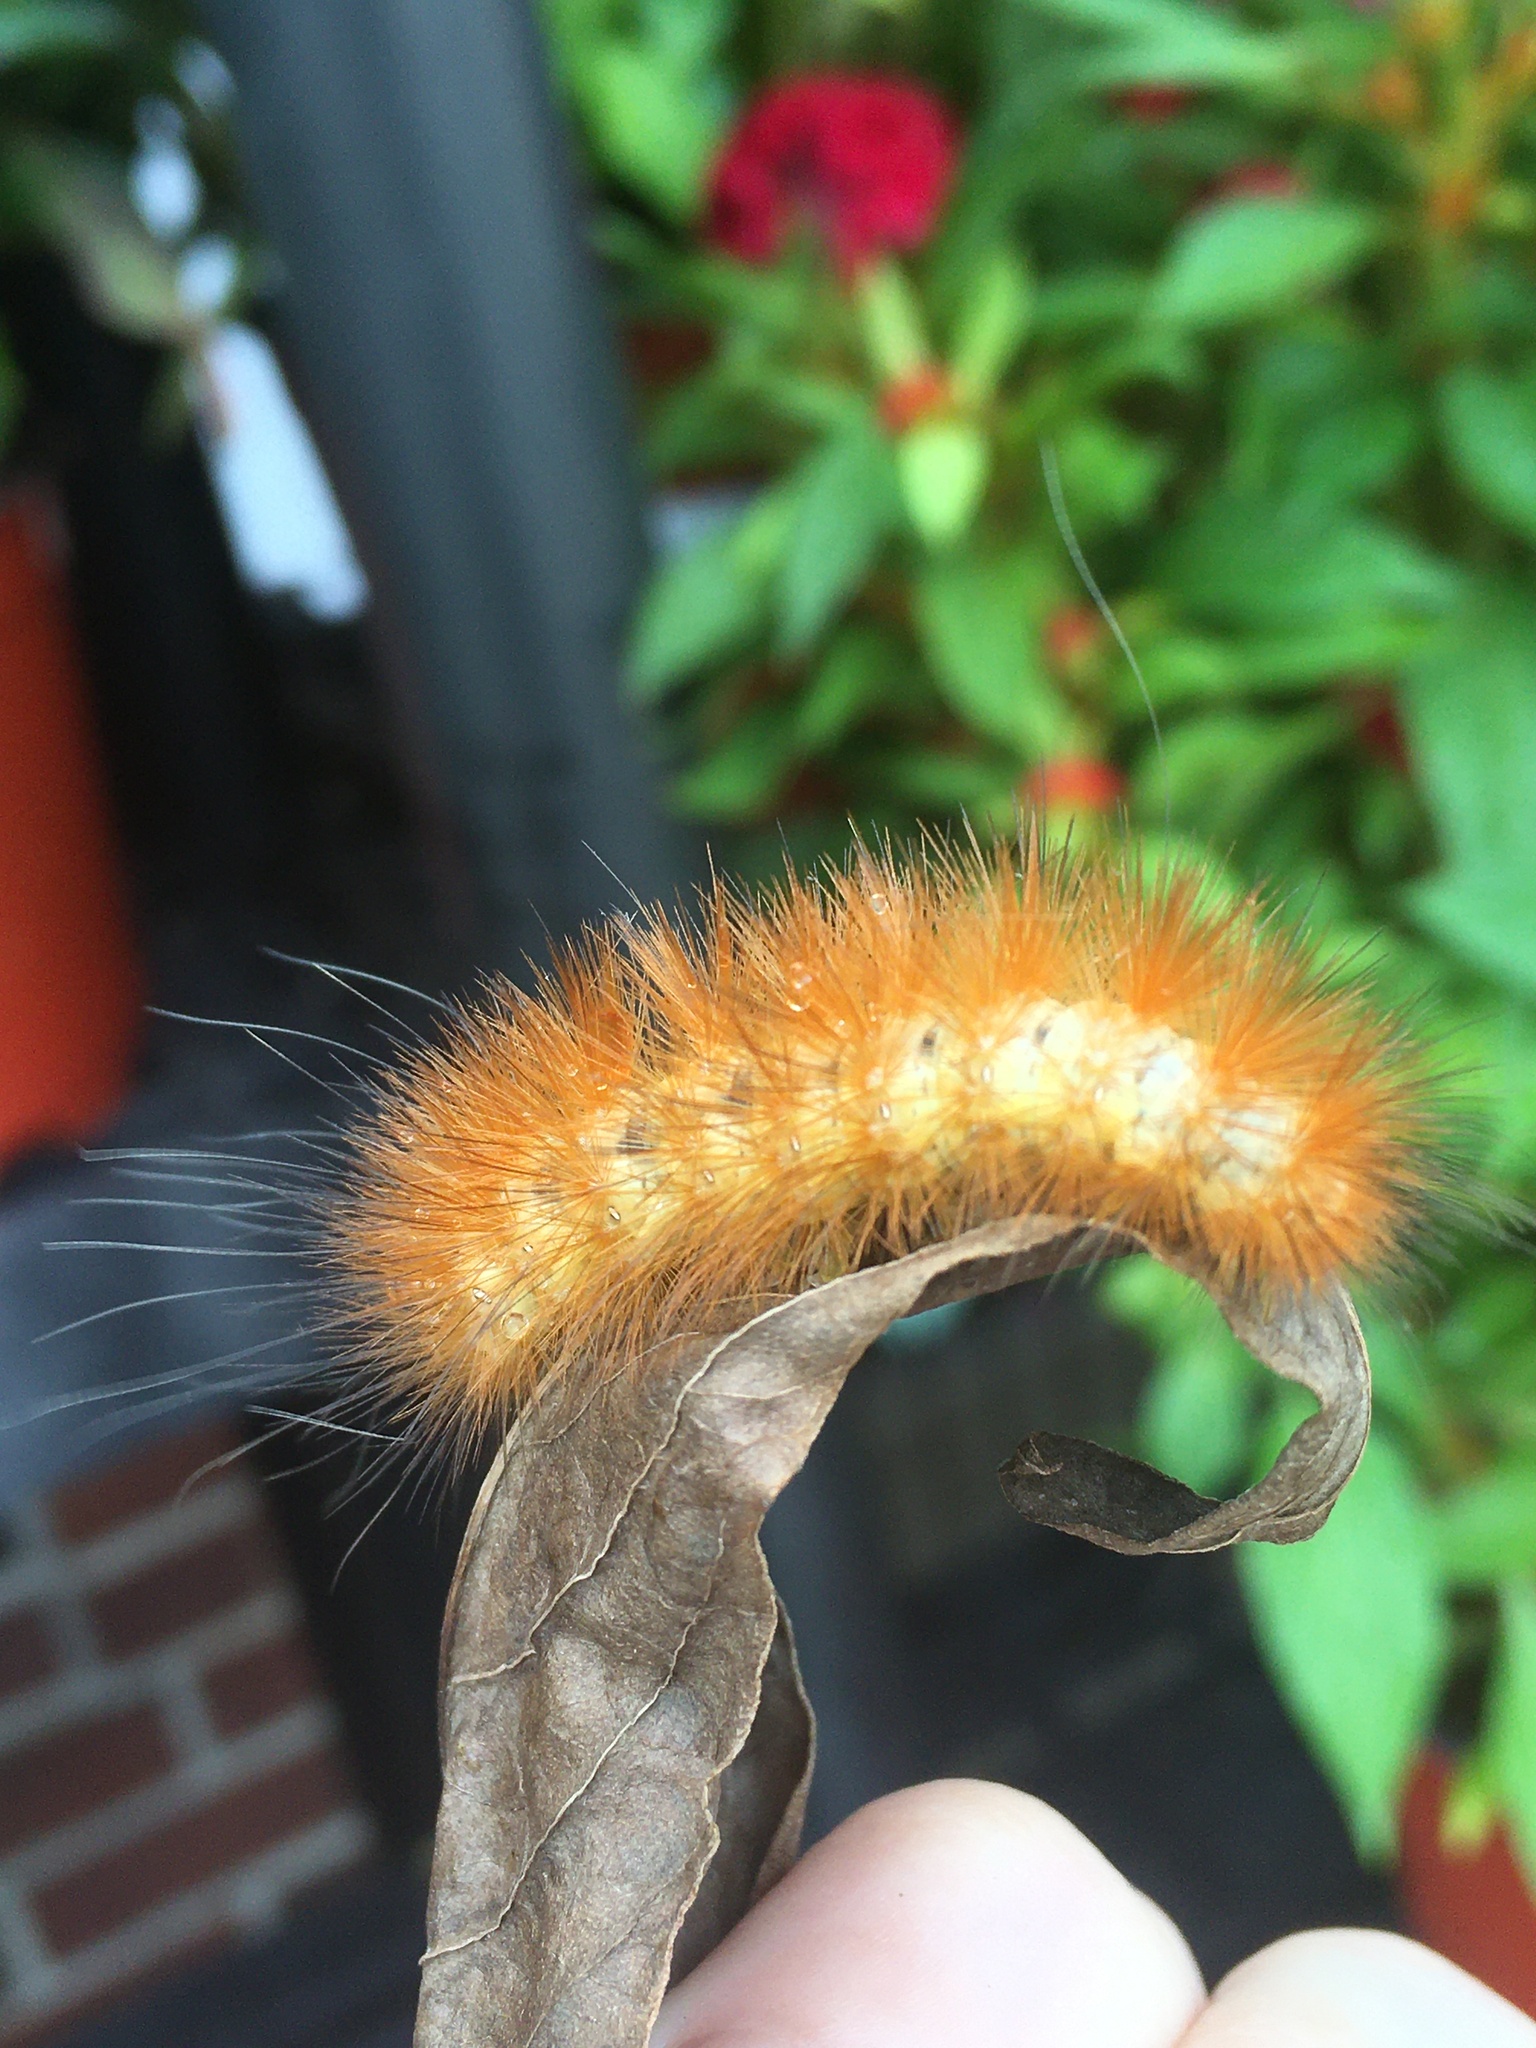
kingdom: Animalia
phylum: Arthropoda
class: Insecta
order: Lepidoptera
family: Erebidae
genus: Spilosoma
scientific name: Spilosoma virginica
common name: Virginia tiger moth
